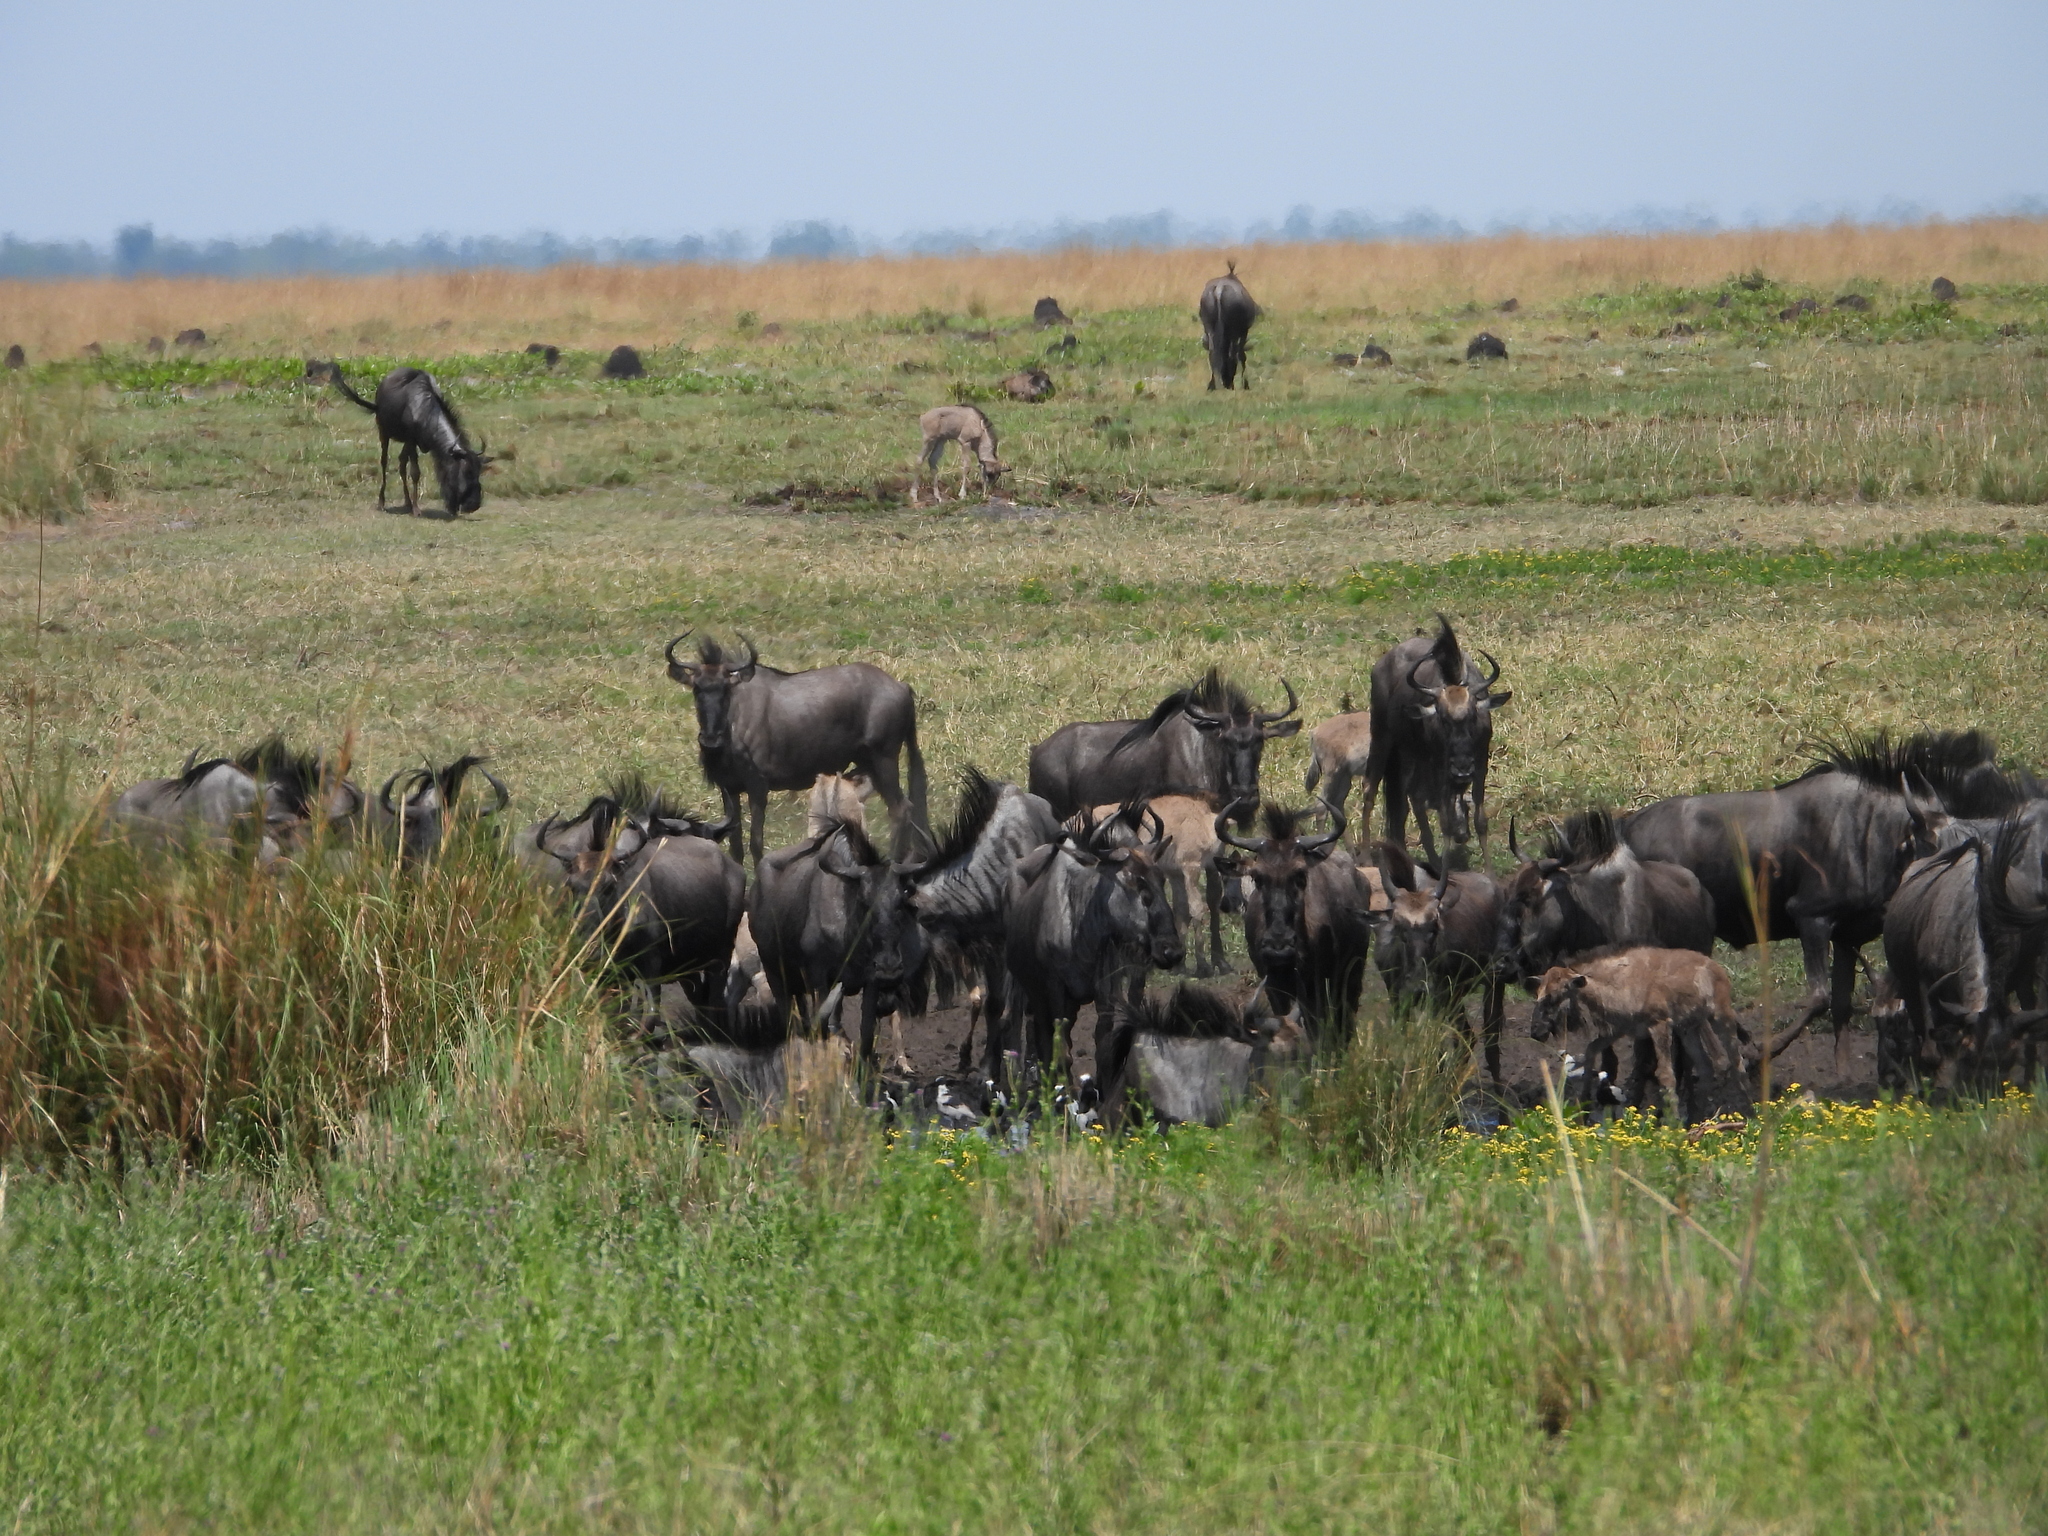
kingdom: Animalia
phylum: Chordata
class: Mammalia
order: Artiodactyla
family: Bovidae
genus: Connochaetes
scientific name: Connochaetes taurinus
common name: Blue wildebeest
